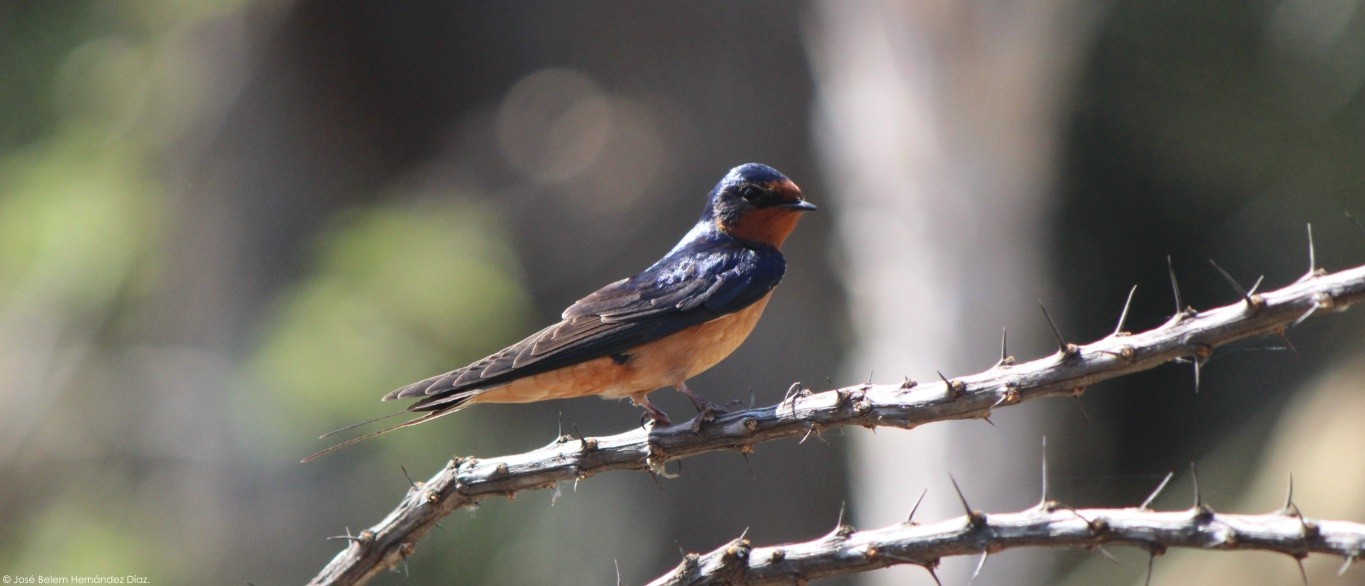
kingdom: Animalia
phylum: Chordata
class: Aves
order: Passeriformes
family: Hirundinidae
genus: Hirundo
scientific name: Hirundo rustica
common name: Barn swallow
